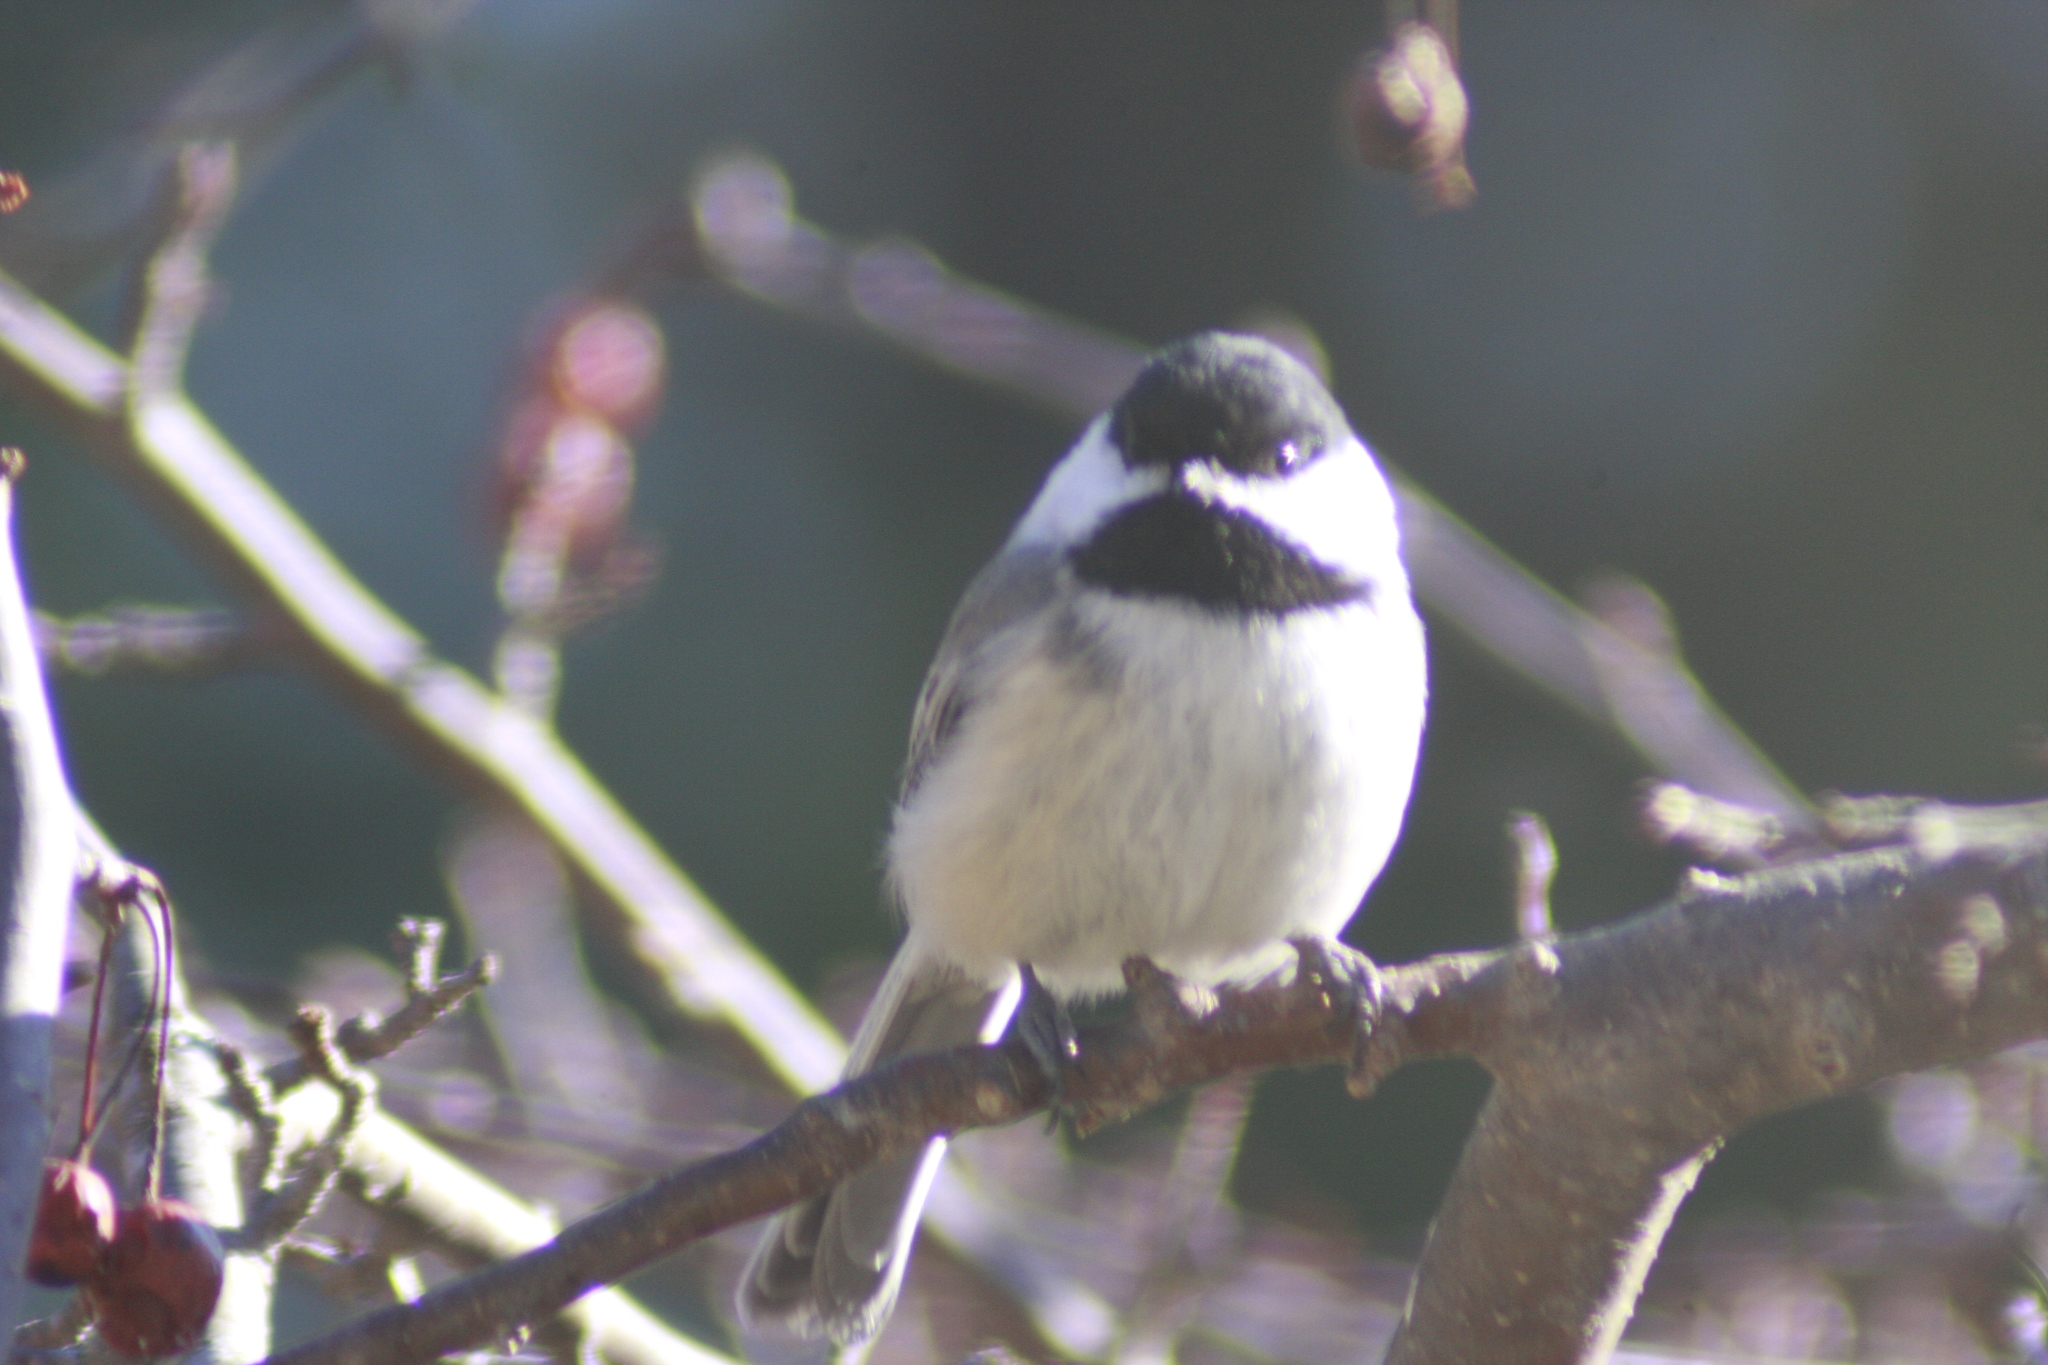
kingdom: Animalia
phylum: Chordata
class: Aves
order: Passeriformes
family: Paridae
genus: Poecile
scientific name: Poecile atricapillus
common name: Black-capped chickadee
